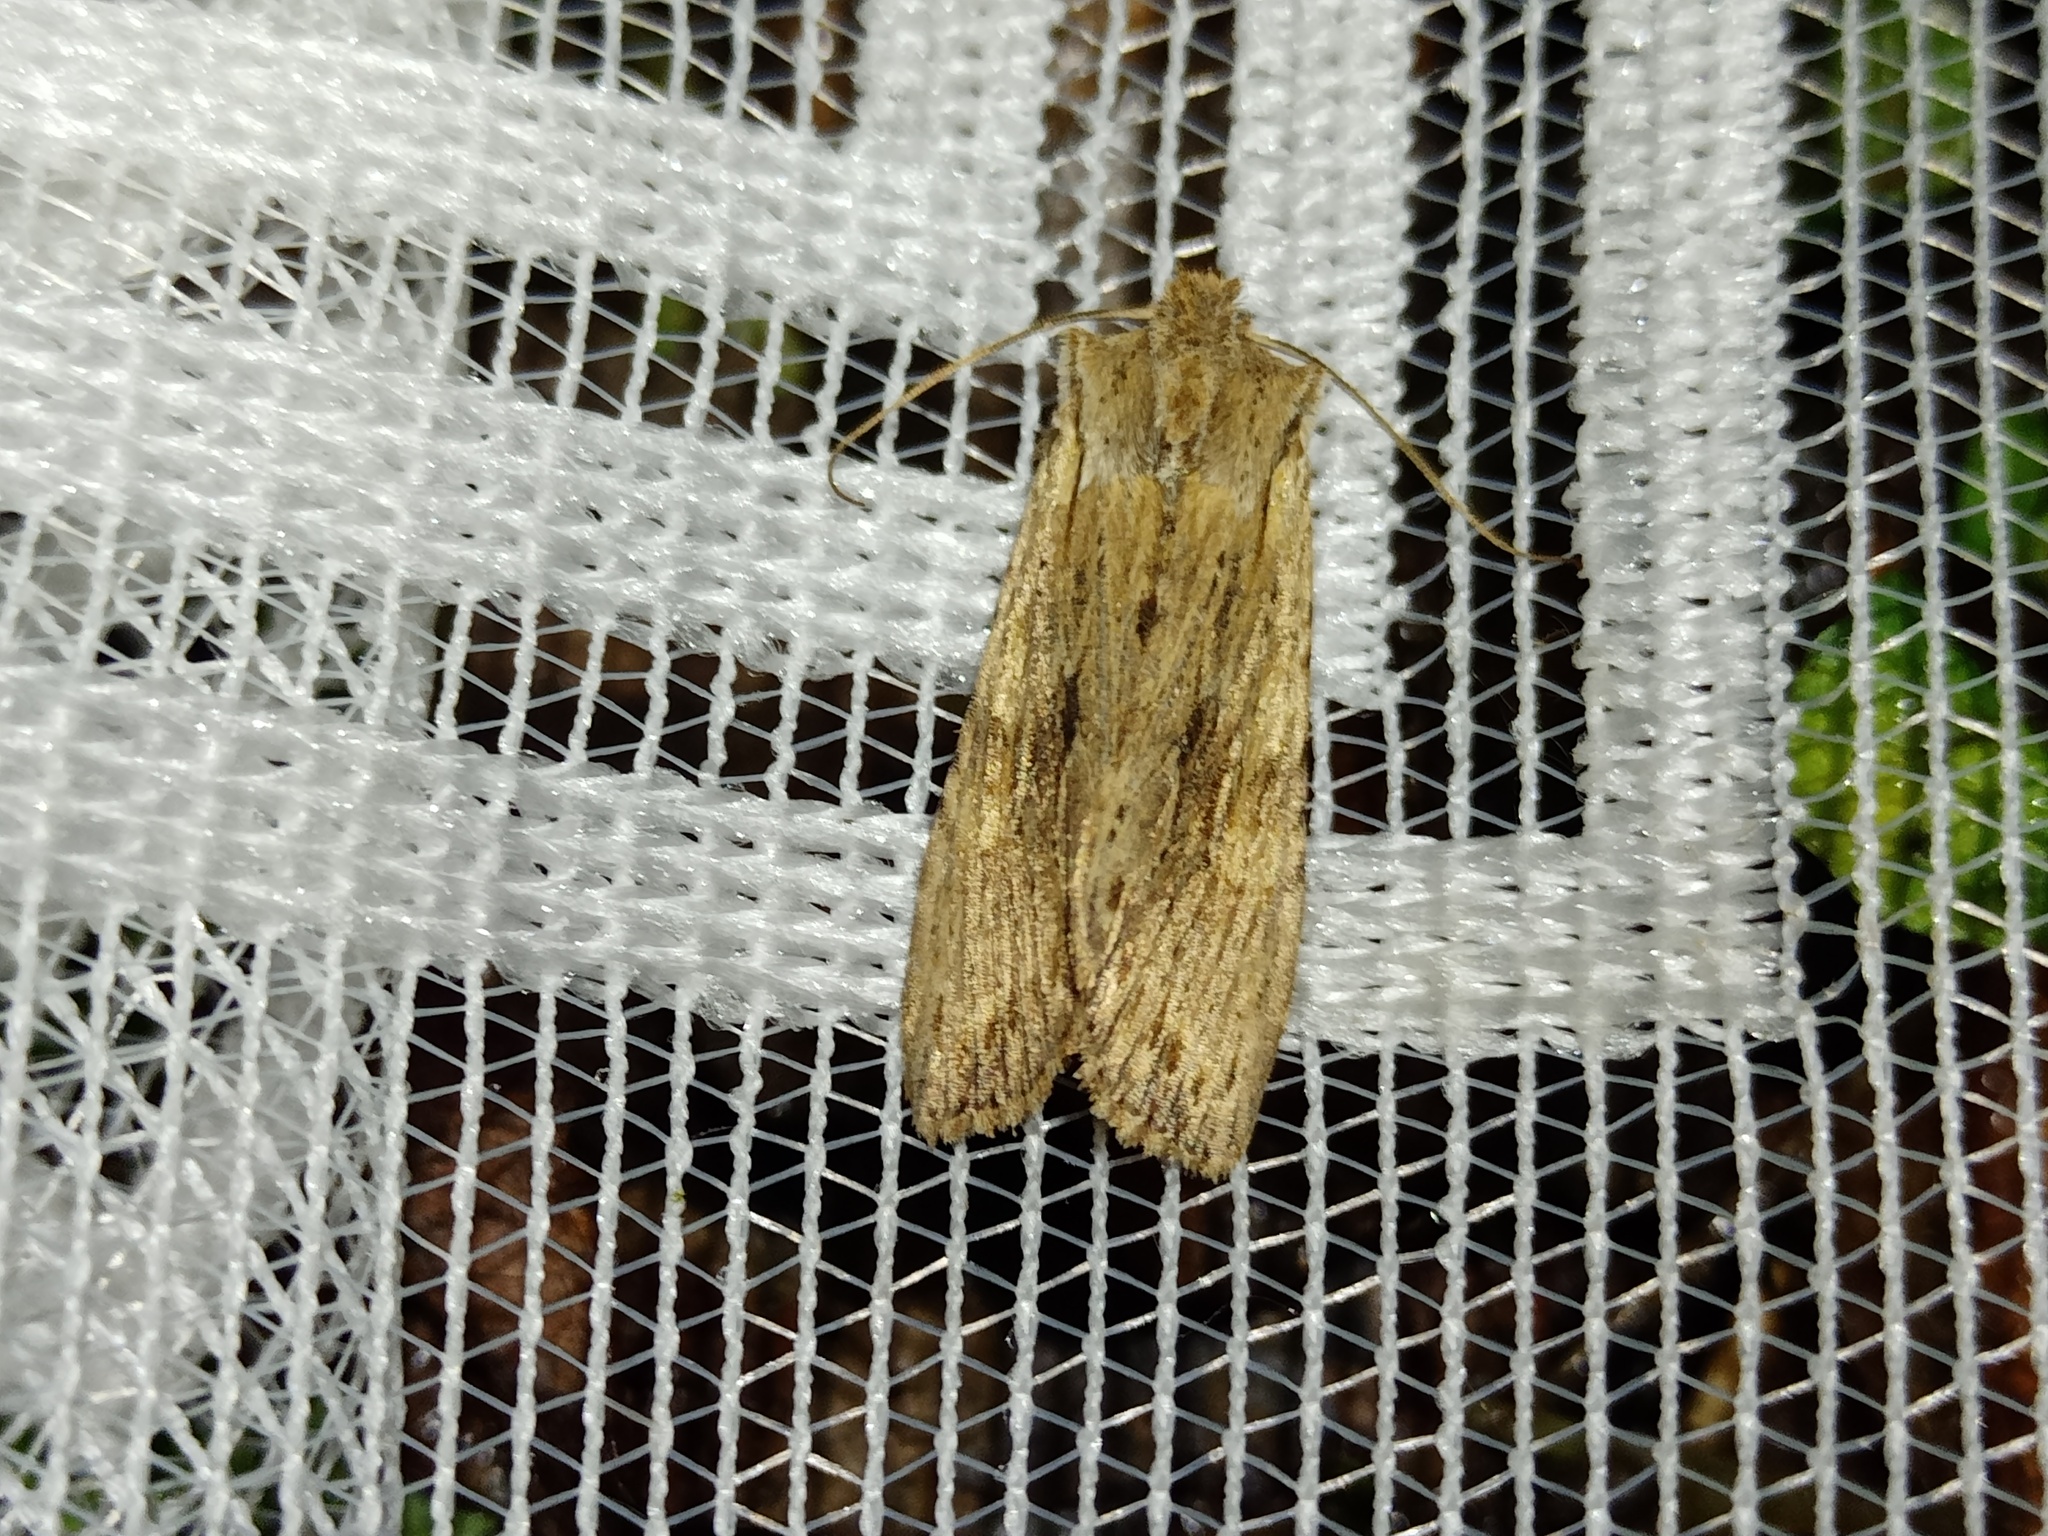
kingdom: Animalia
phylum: Arthropoda
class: Insecta
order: Lepidoptera
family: Noctuidae
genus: Lithophane
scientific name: Lithophane socia
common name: Pale pinion
